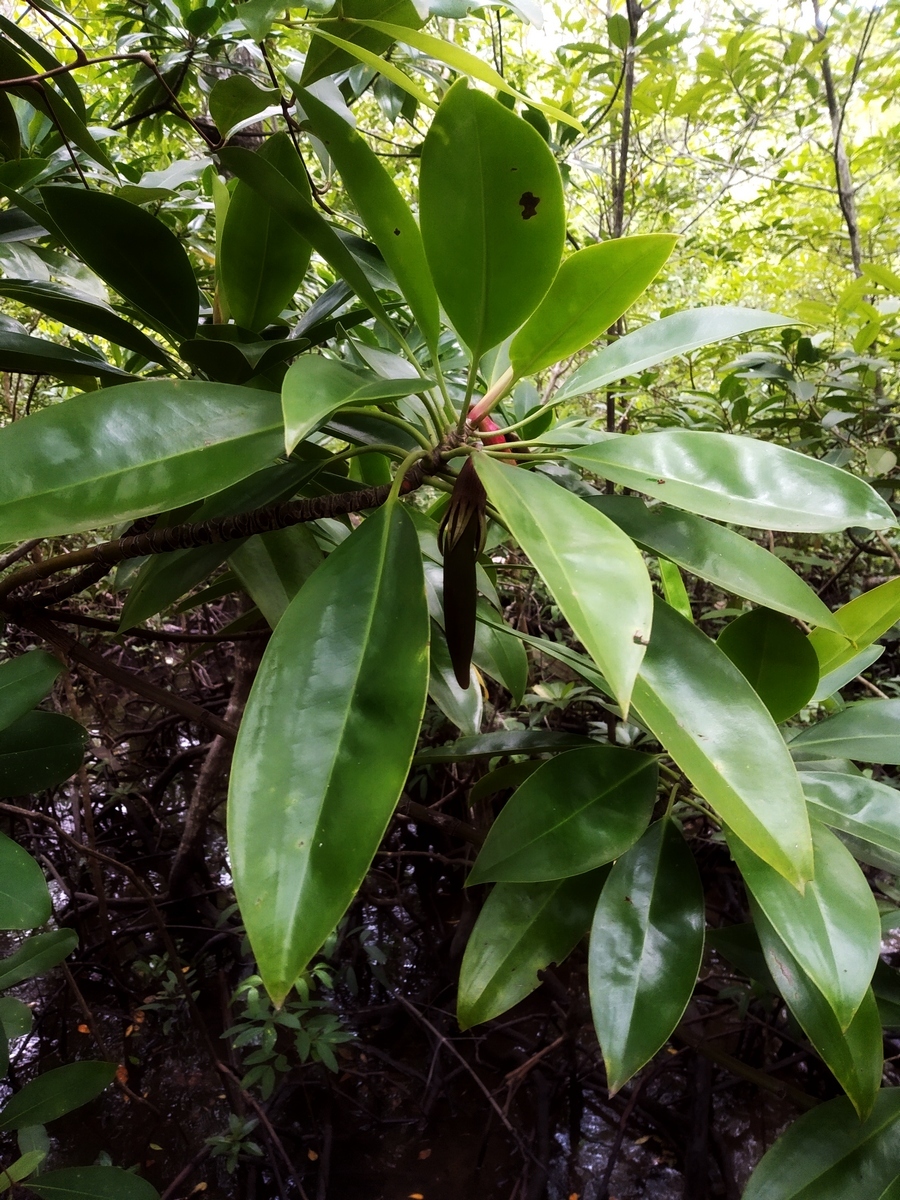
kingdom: Plantae
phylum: Tracheophyta
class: Magnoliopsida
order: Malpighiales
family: Rhizophoraceae
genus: Bruguiera
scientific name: Bruguiera gymnorhiza
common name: Oriental mangrove
